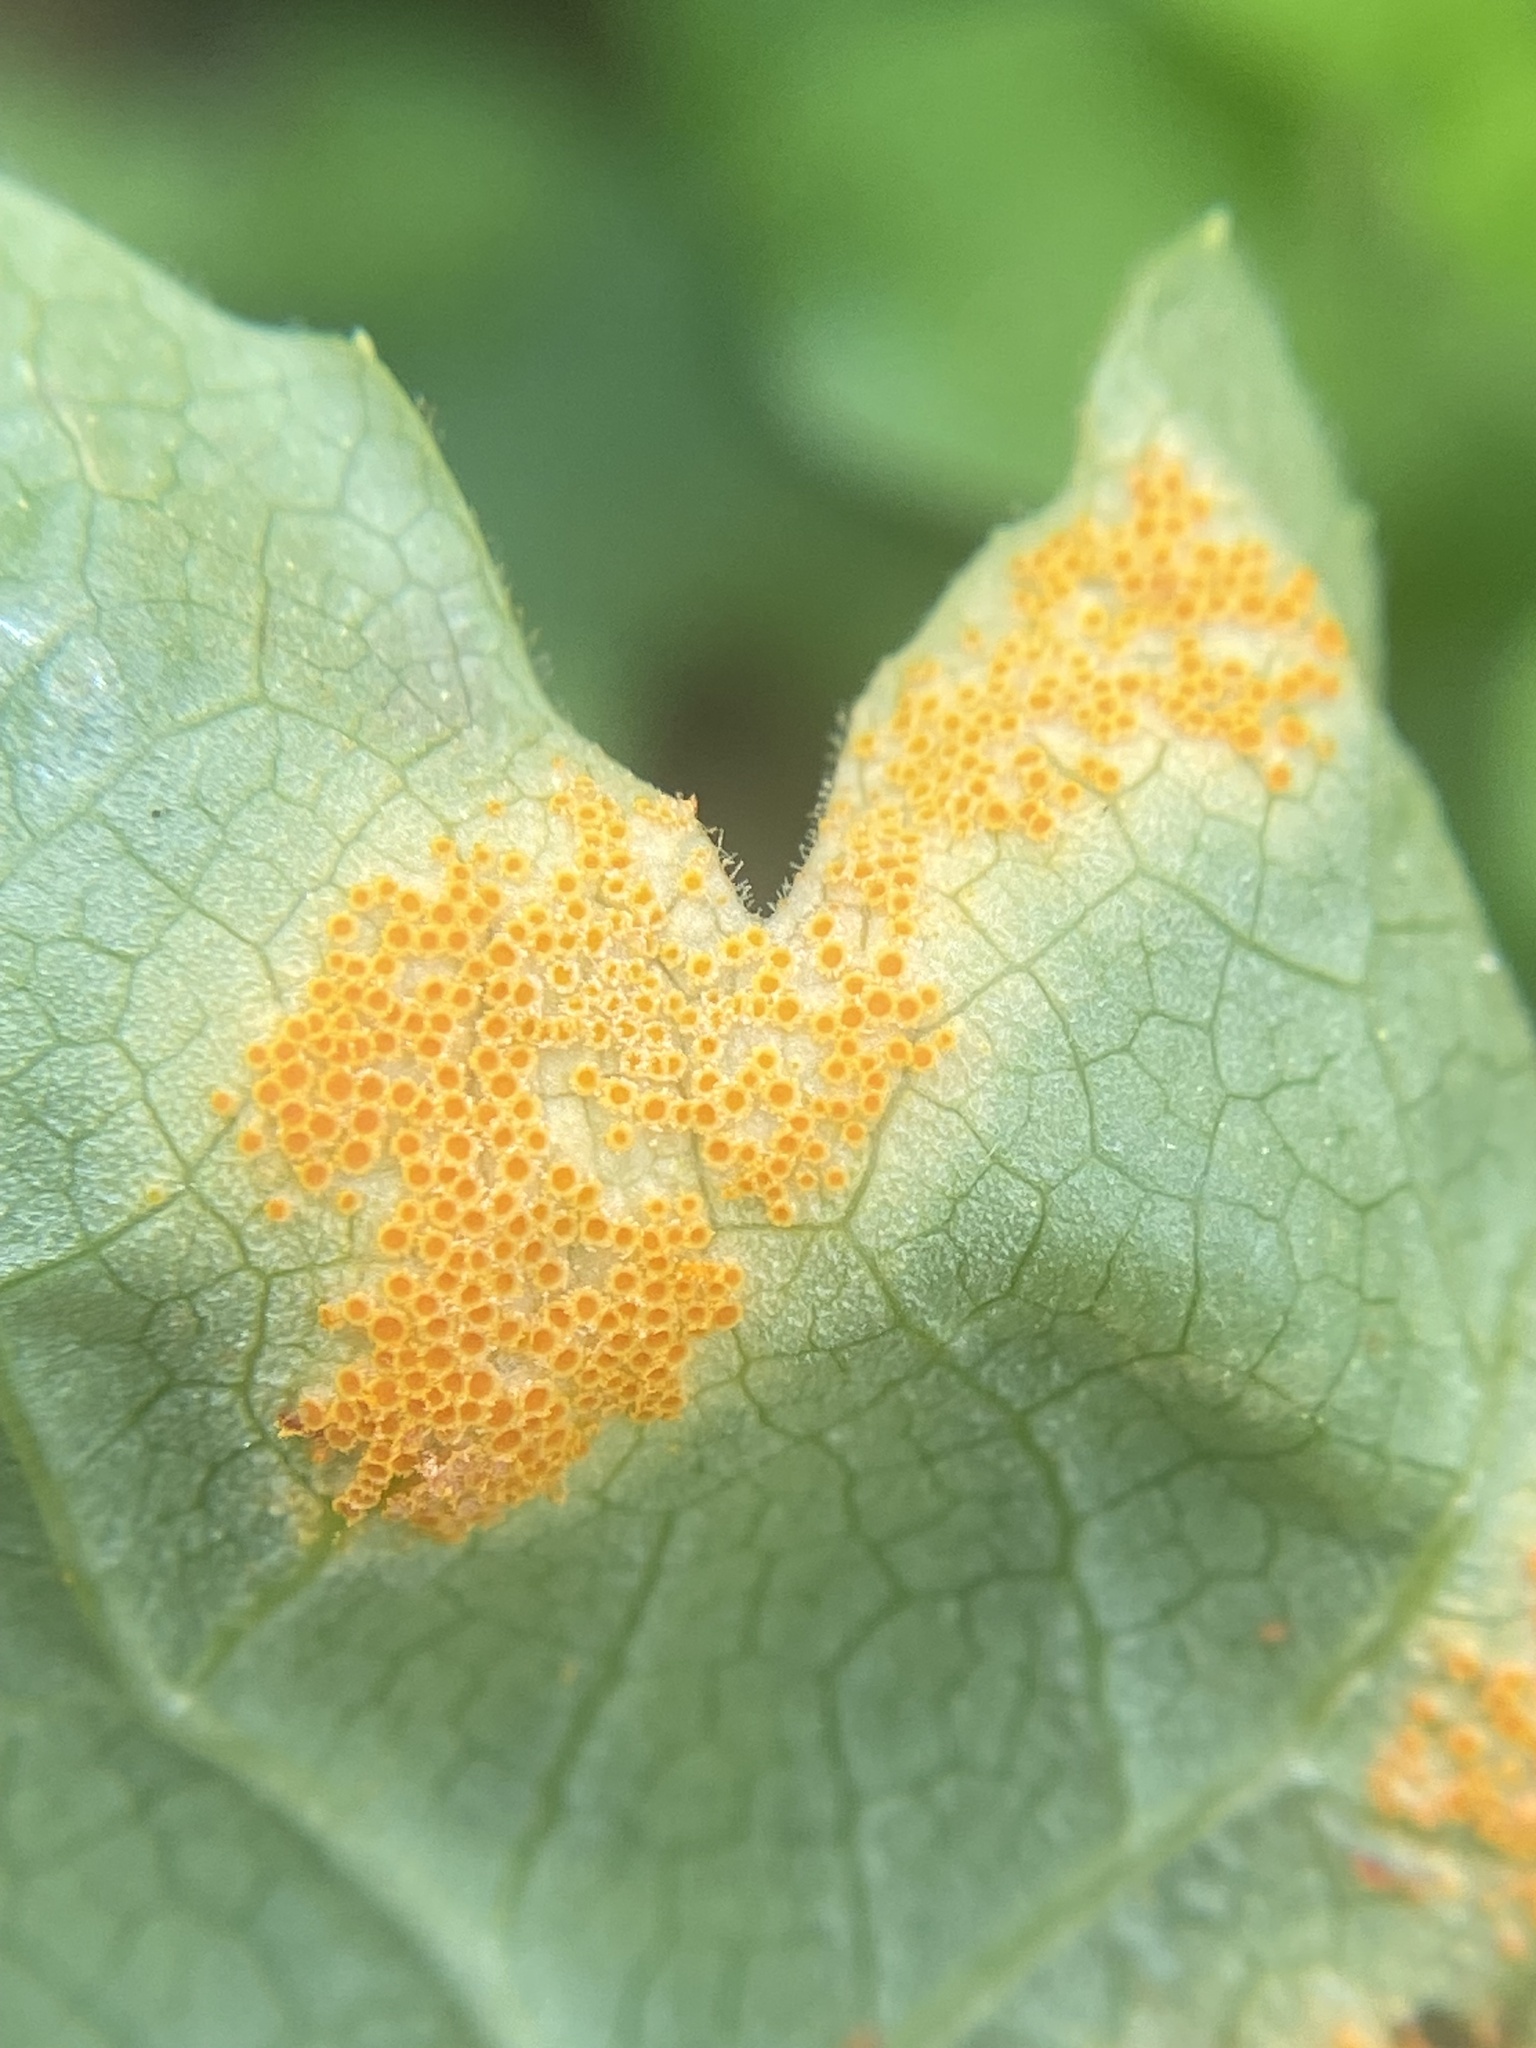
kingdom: Fungi
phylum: Basidiomycota
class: Pucciniomycetes
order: Pucciniales
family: Pucciniaceae
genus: Puccinia
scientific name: Puccinia podophylli
